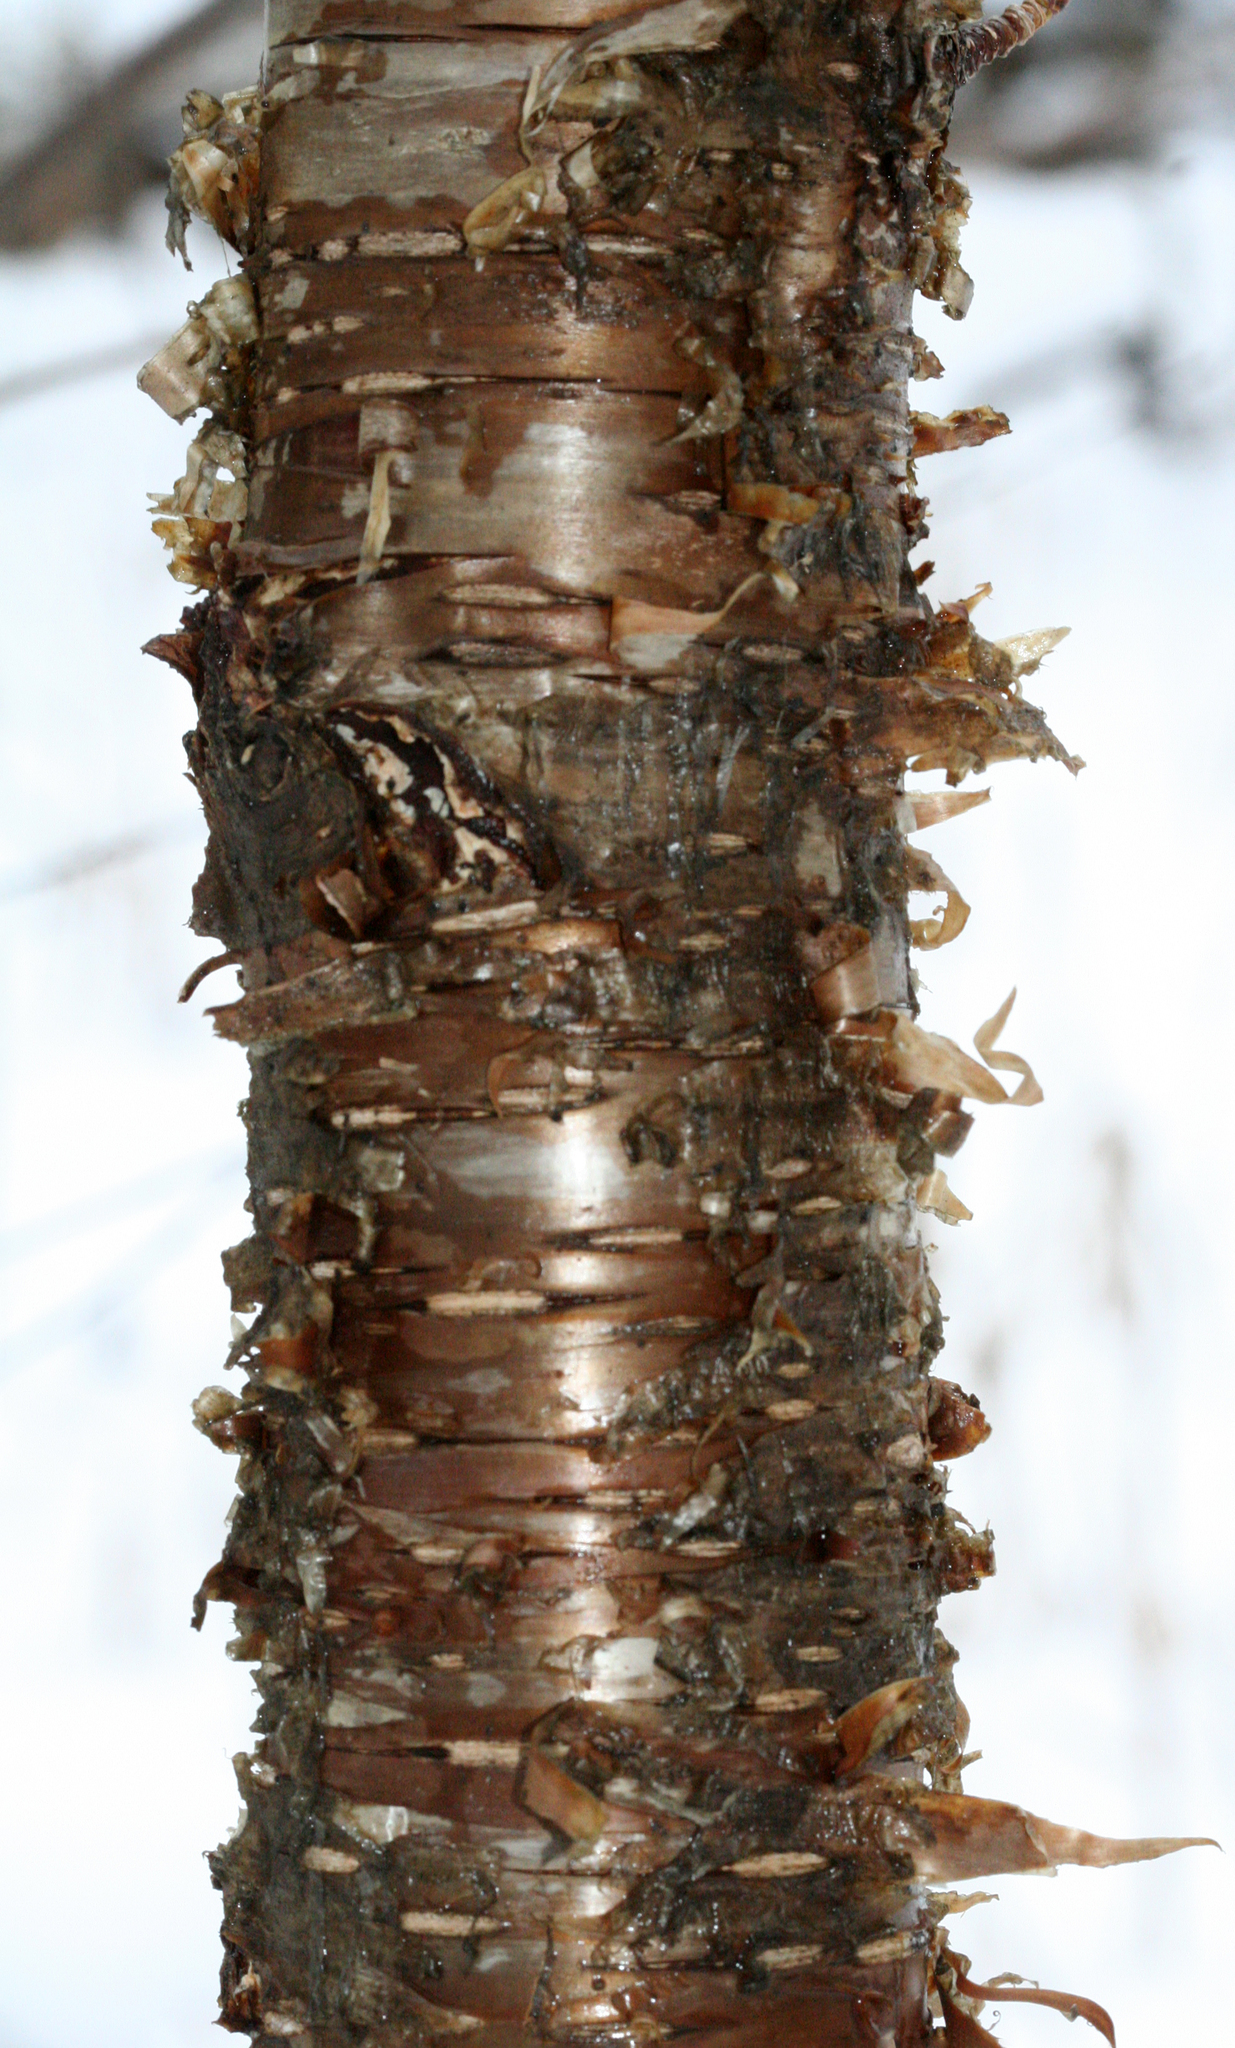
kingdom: Plantae
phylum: Tracheophyta
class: Magnoliopsida
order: Fagales
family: Betulaceae
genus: Betula
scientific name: Betula alleghaniensis
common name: Yellow birch
